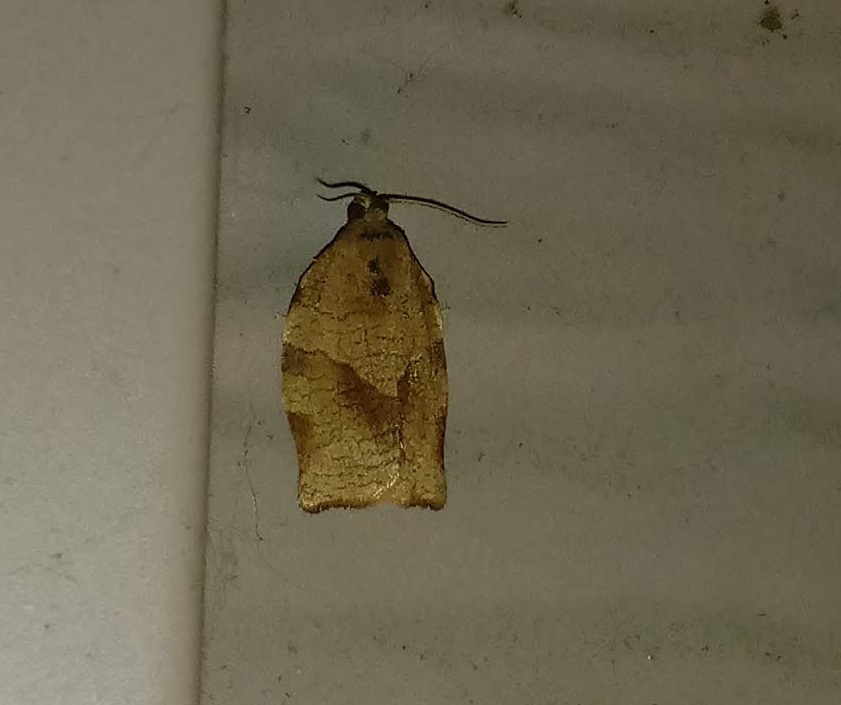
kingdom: Animalia
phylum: Arthropoda
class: Insecta
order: Lepidoptera
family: Tortricidae
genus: Choristoneura
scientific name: Choristoneura rosaceana
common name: Oblique-banded leafroller moth
